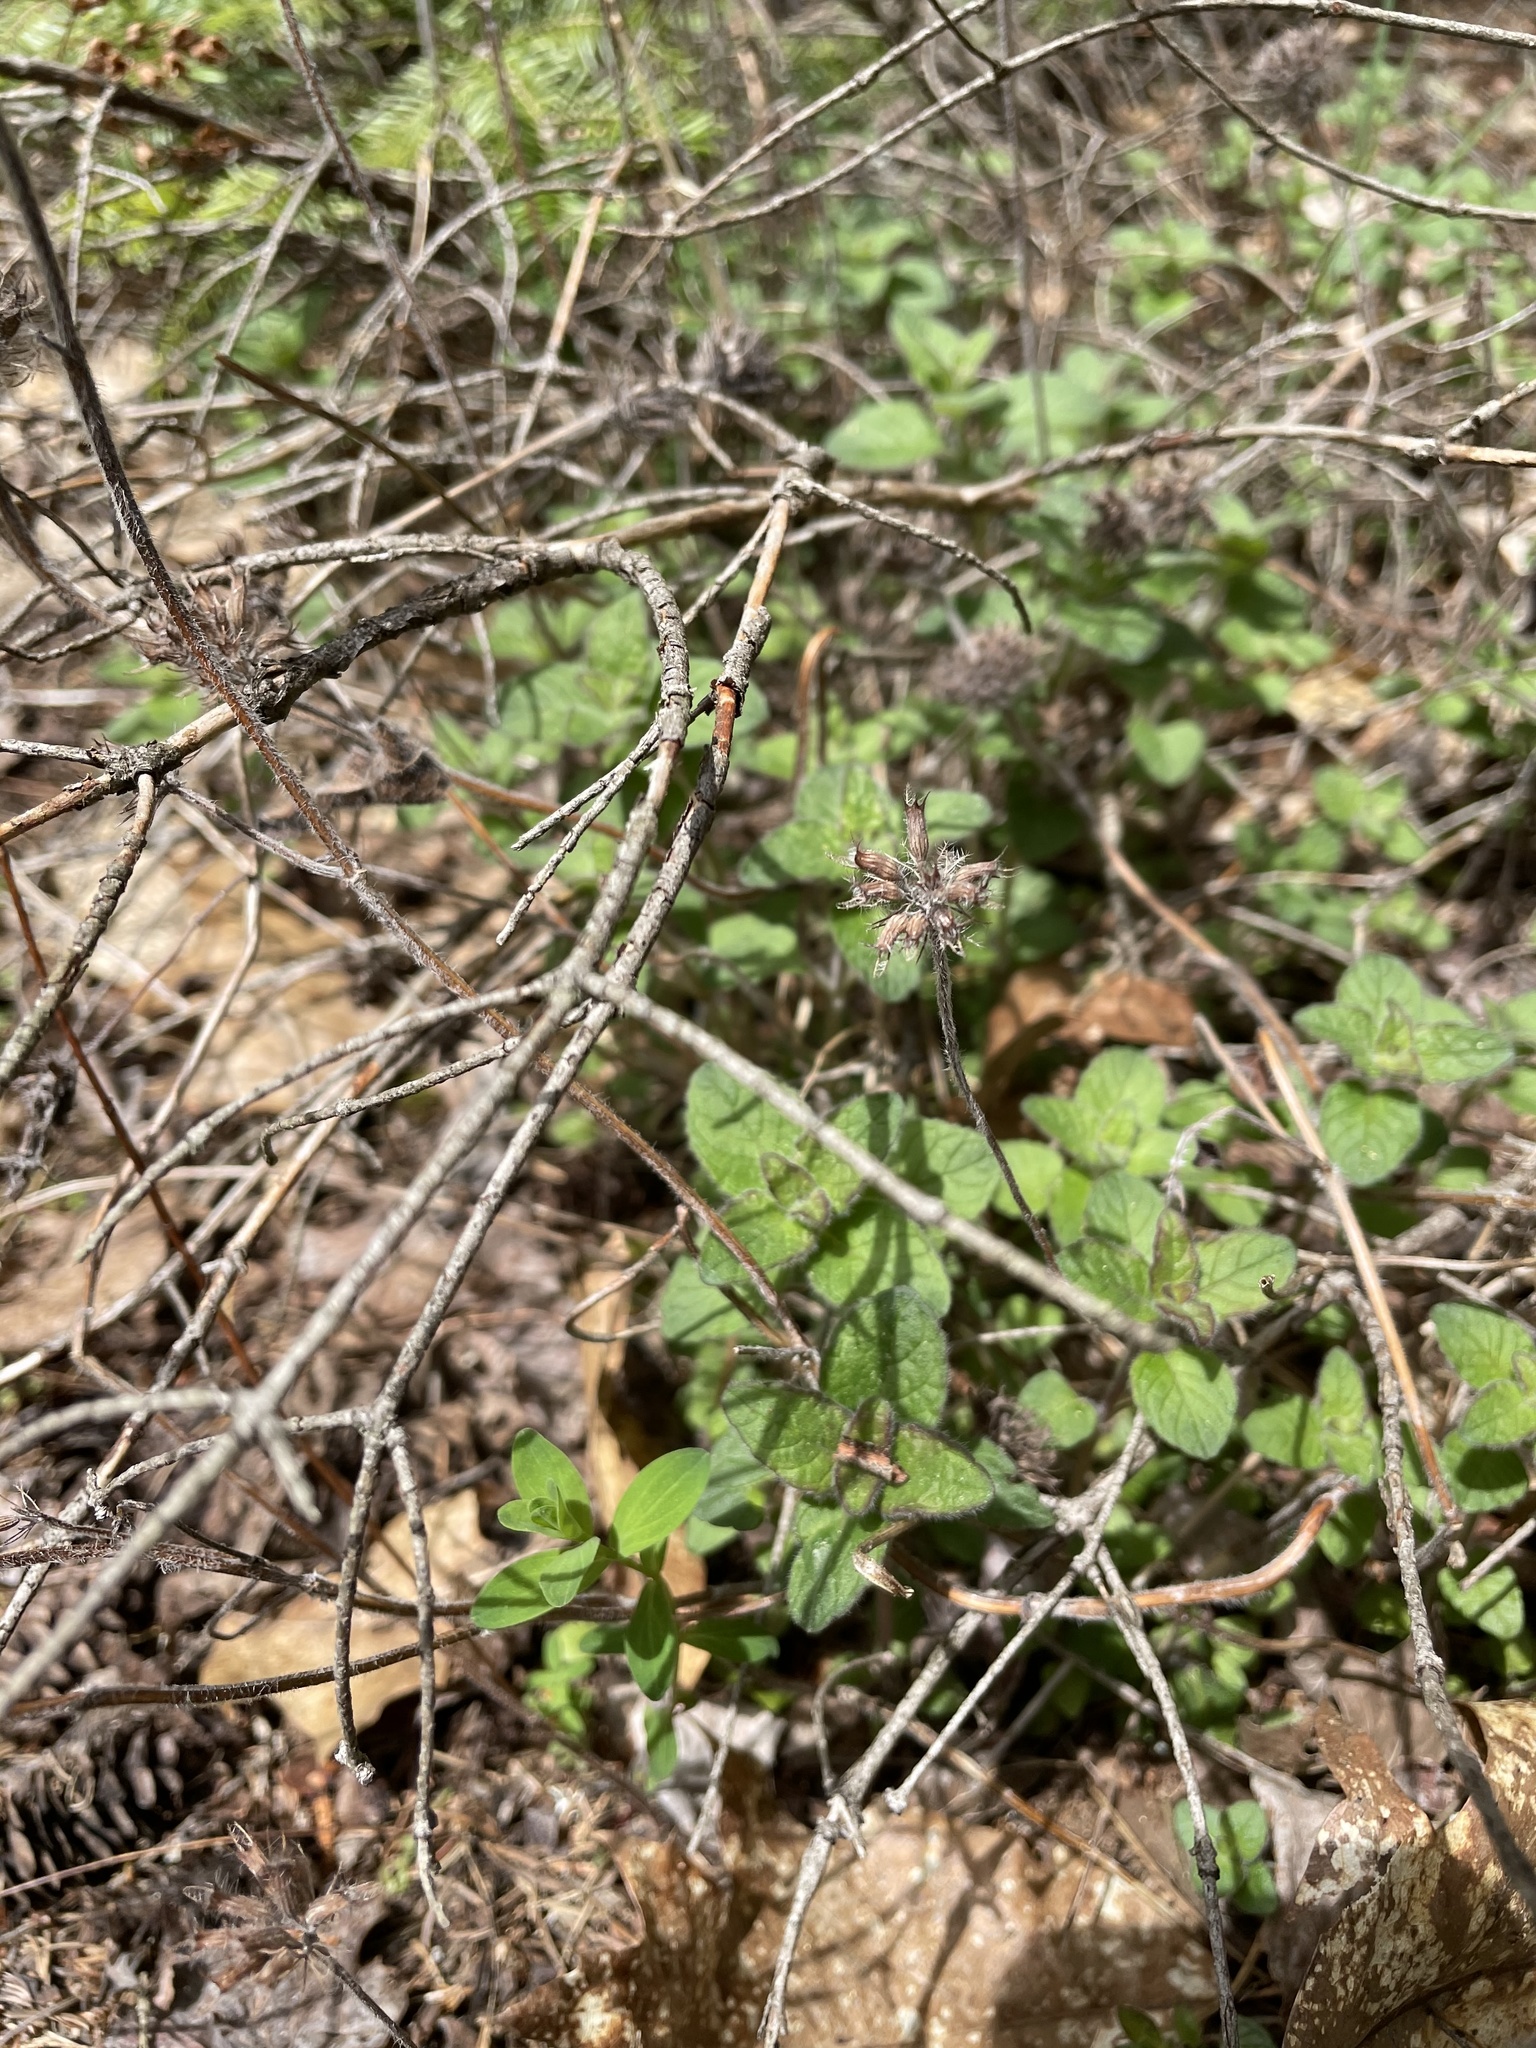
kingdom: Plantae
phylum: Tracheophyta
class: Magnoliopsida
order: Lamiales
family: Lamiaceae
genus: Clinopodium
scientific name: Clinopodium vulgare
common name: Wild basil
